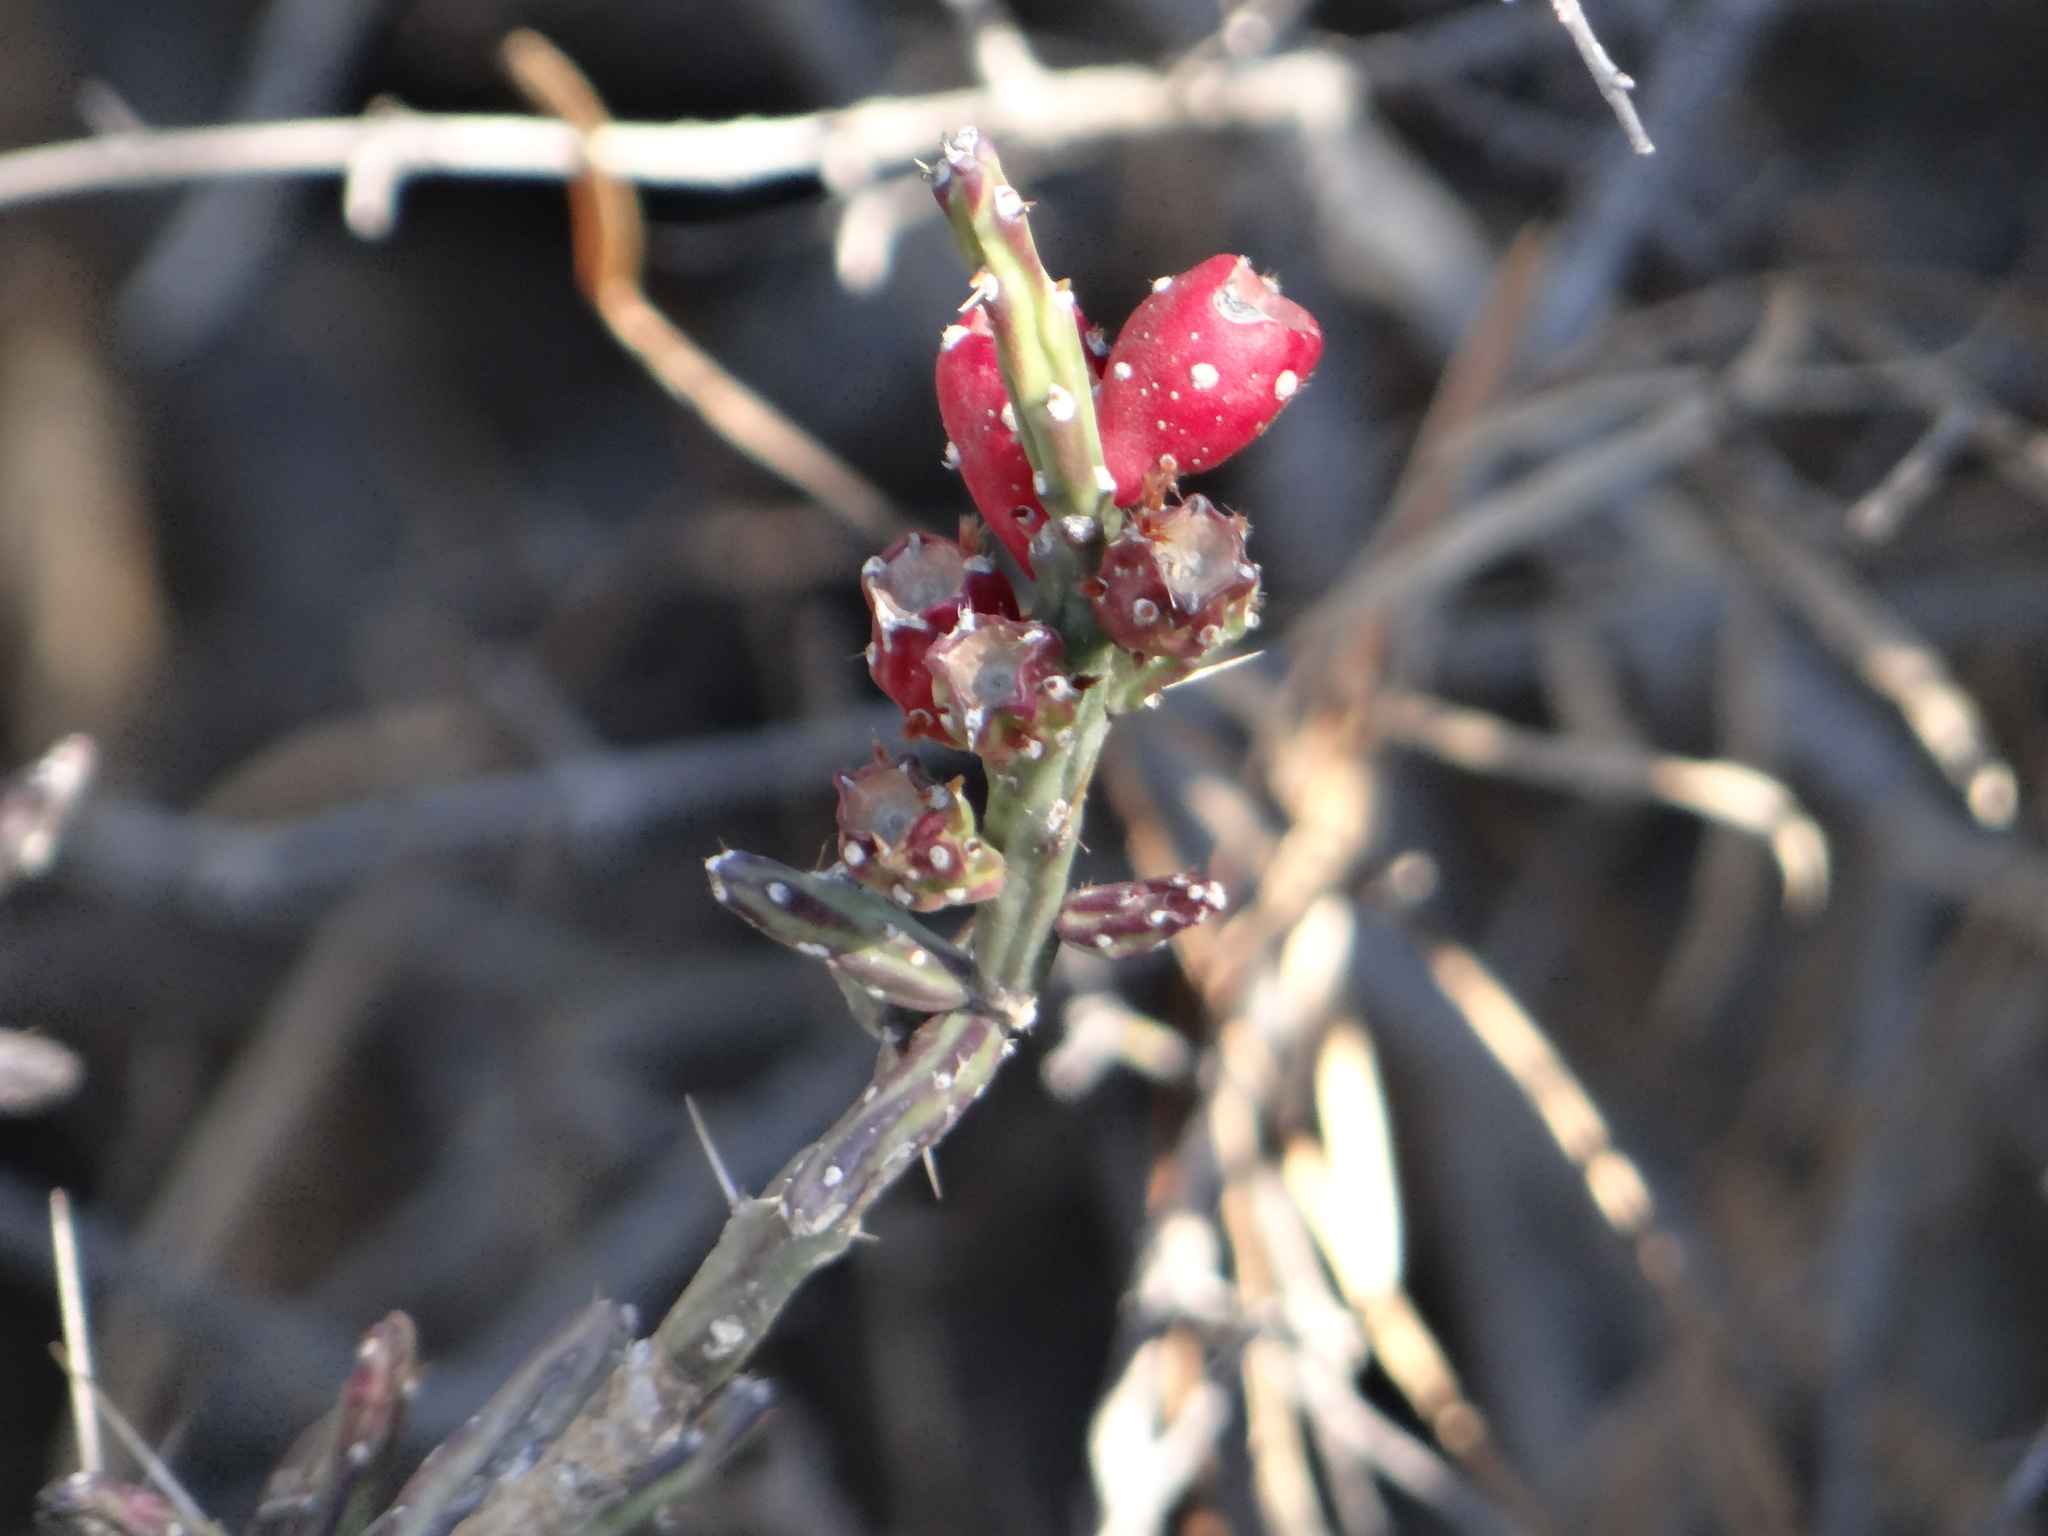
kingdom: Plantae
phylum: Tracheophyta
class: Magnoliopsida
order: Caryophyllales
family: Cactaceae
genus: Cylindropuntia
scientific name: Cylindropuntia leptocaulis
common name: Christmas cactus
